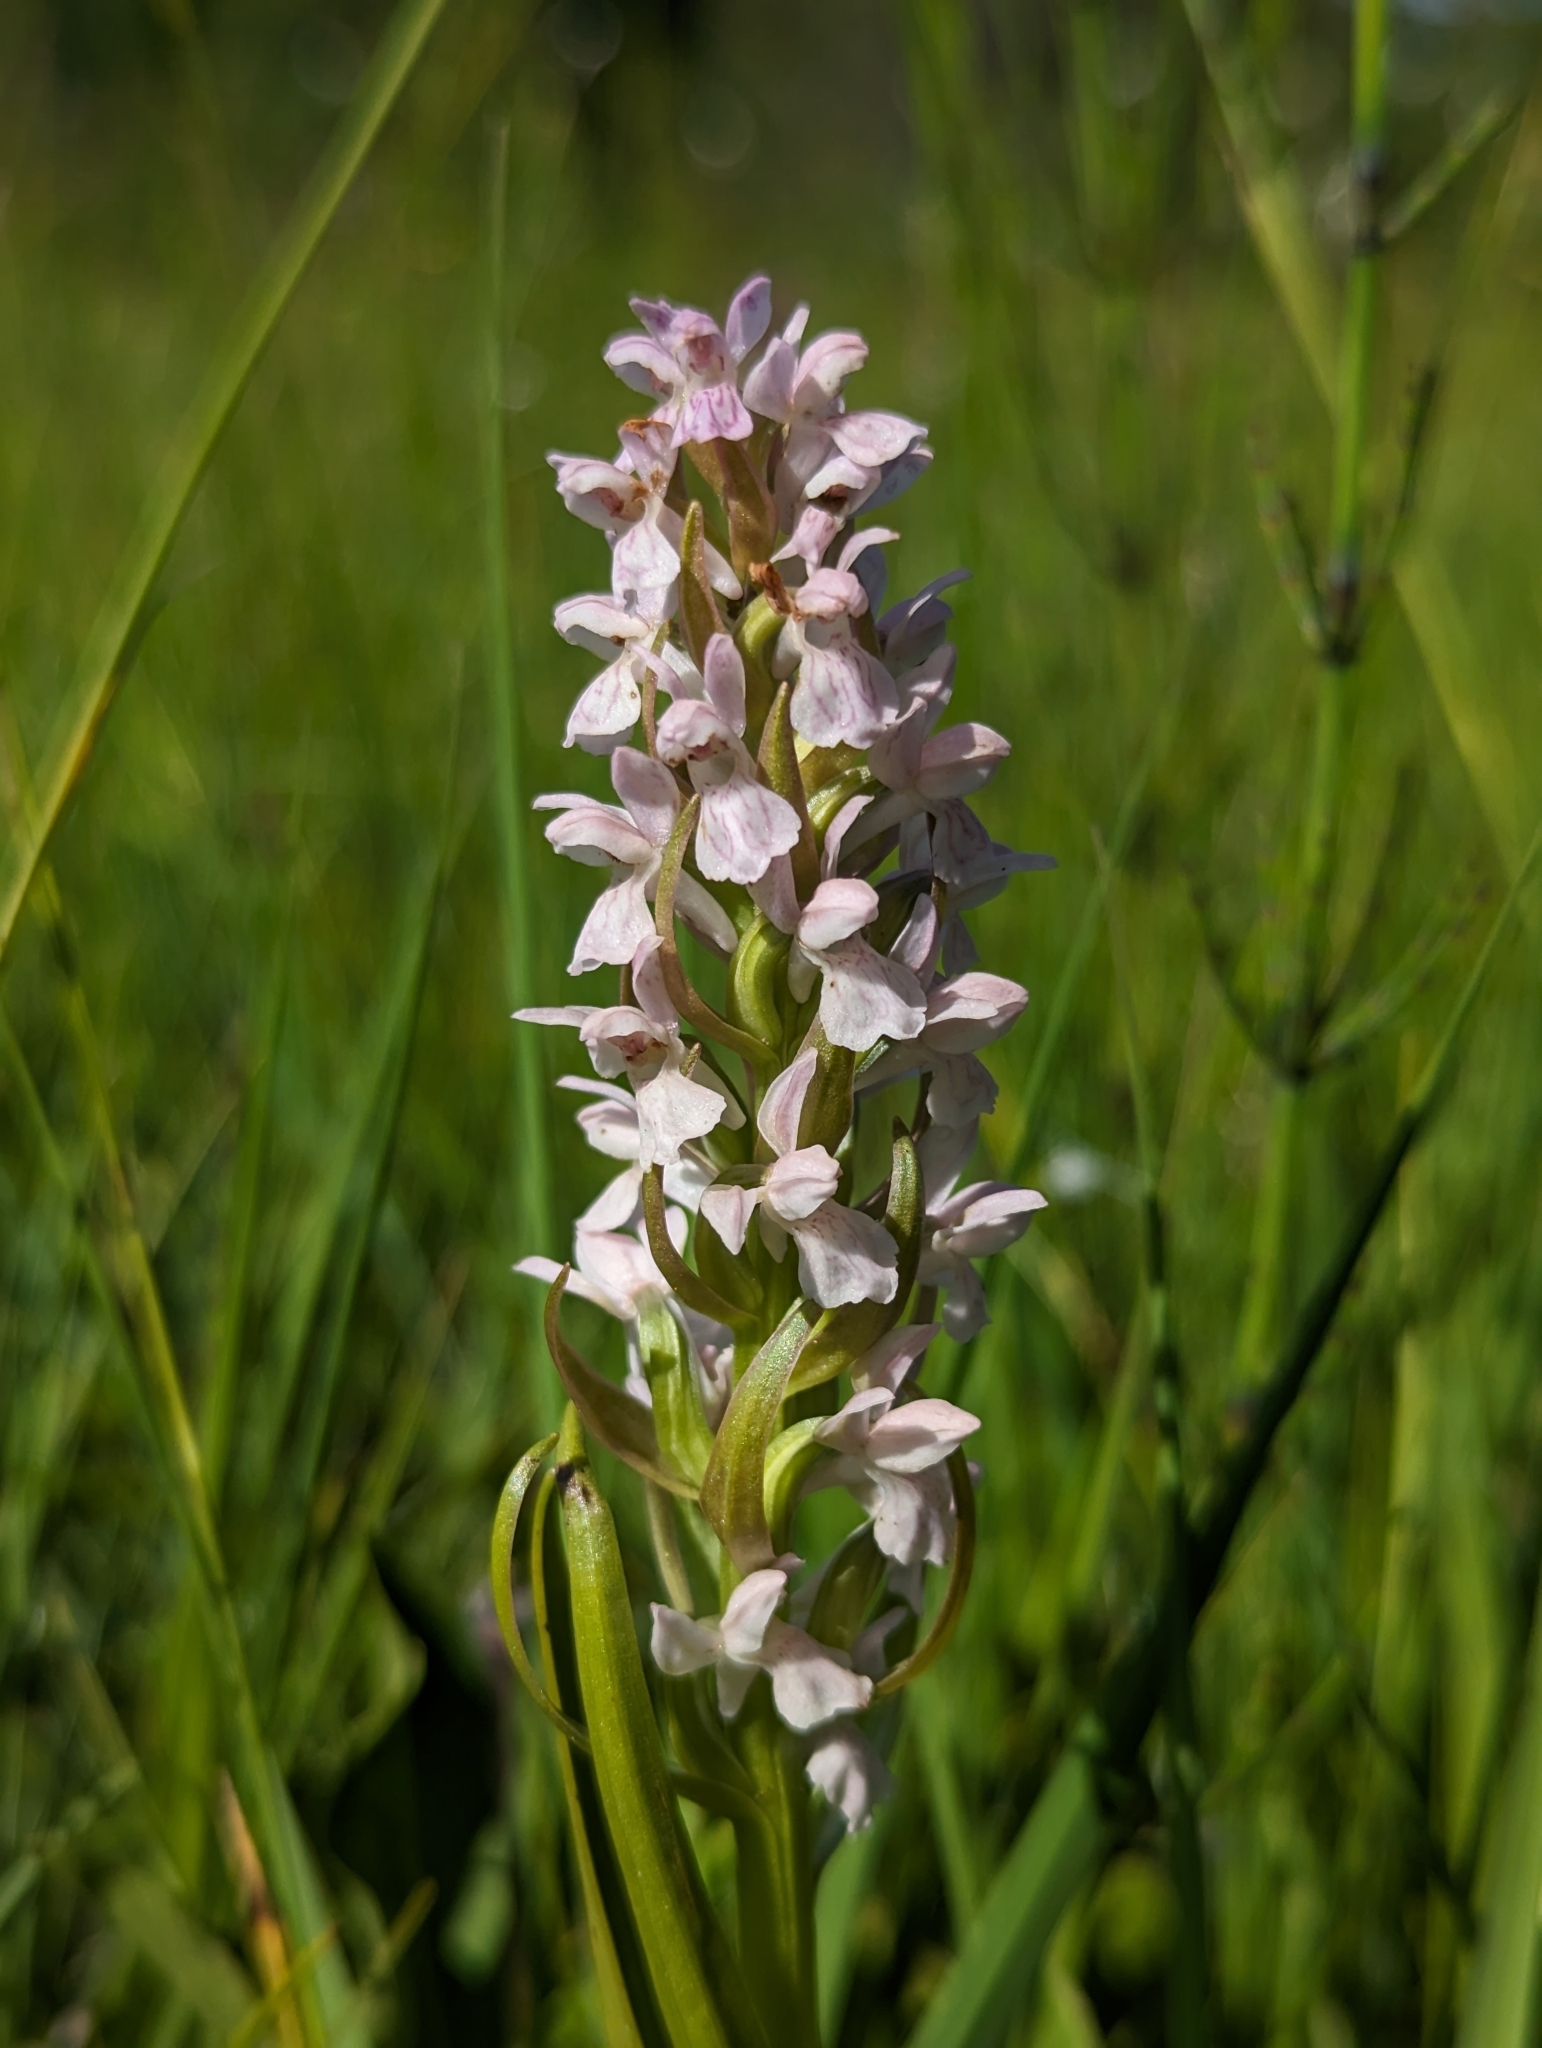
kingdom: Plantae
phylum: Tracheophyta
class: Liliopsida
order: Asparagales
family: Orchidaceae
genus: Dactylorhiza
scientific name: Dactylorhiza incarnata
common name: Early marsh-orchid
